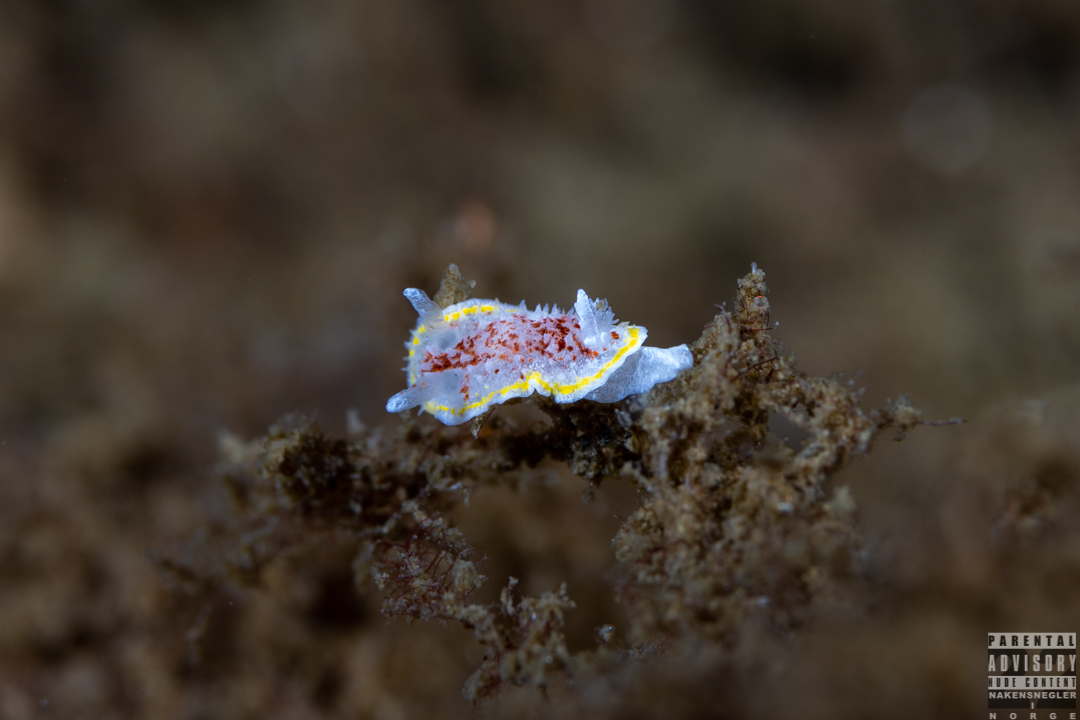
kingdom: Animalia
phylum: Mollusca
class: Gastropoda
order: Nudibranchia
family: Calycidorididae
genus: Diaphorodoris
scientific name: Diaphorodoris luteocincta
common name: Fried egg nudibranch
